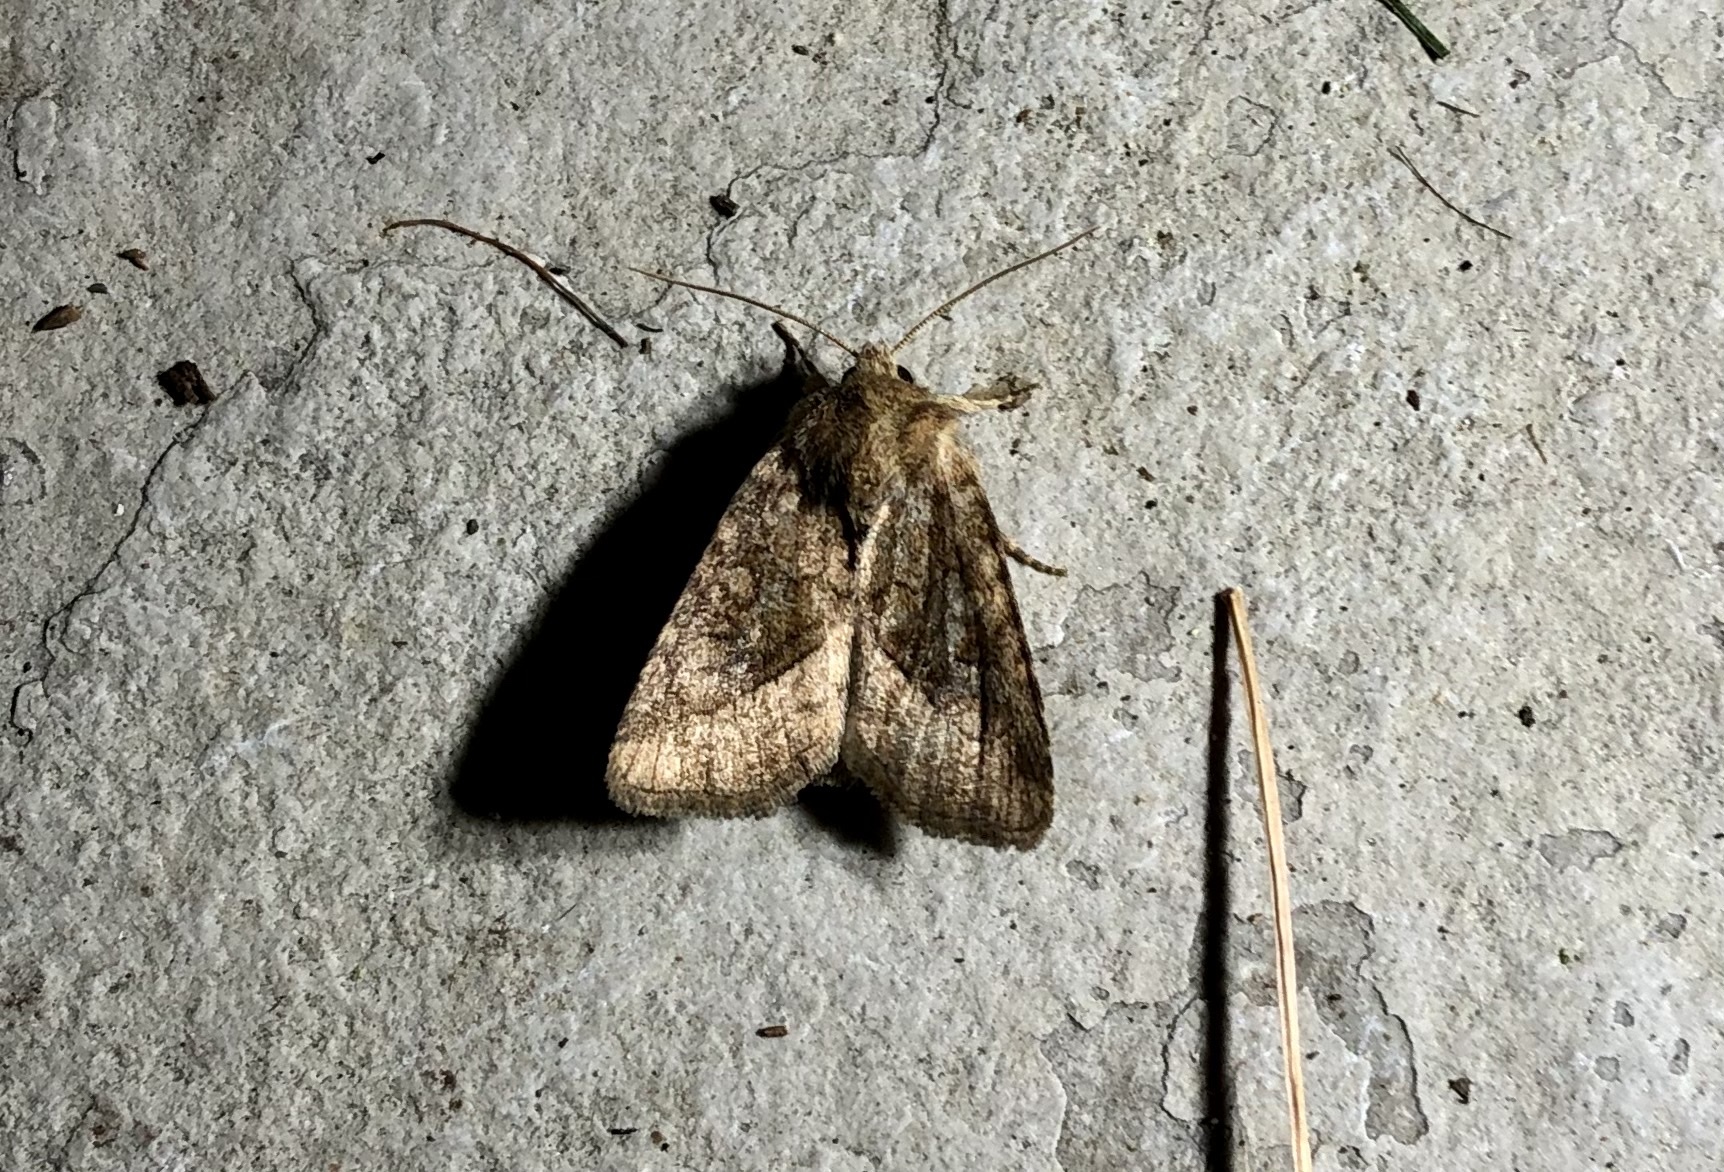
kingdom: Animalia
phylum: Arthropoda
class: Insecta
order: Lepidoptera
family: Noctuidae
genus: Lacinipolia
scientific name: Lacinipolia lorea
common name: Bridled arches moth
